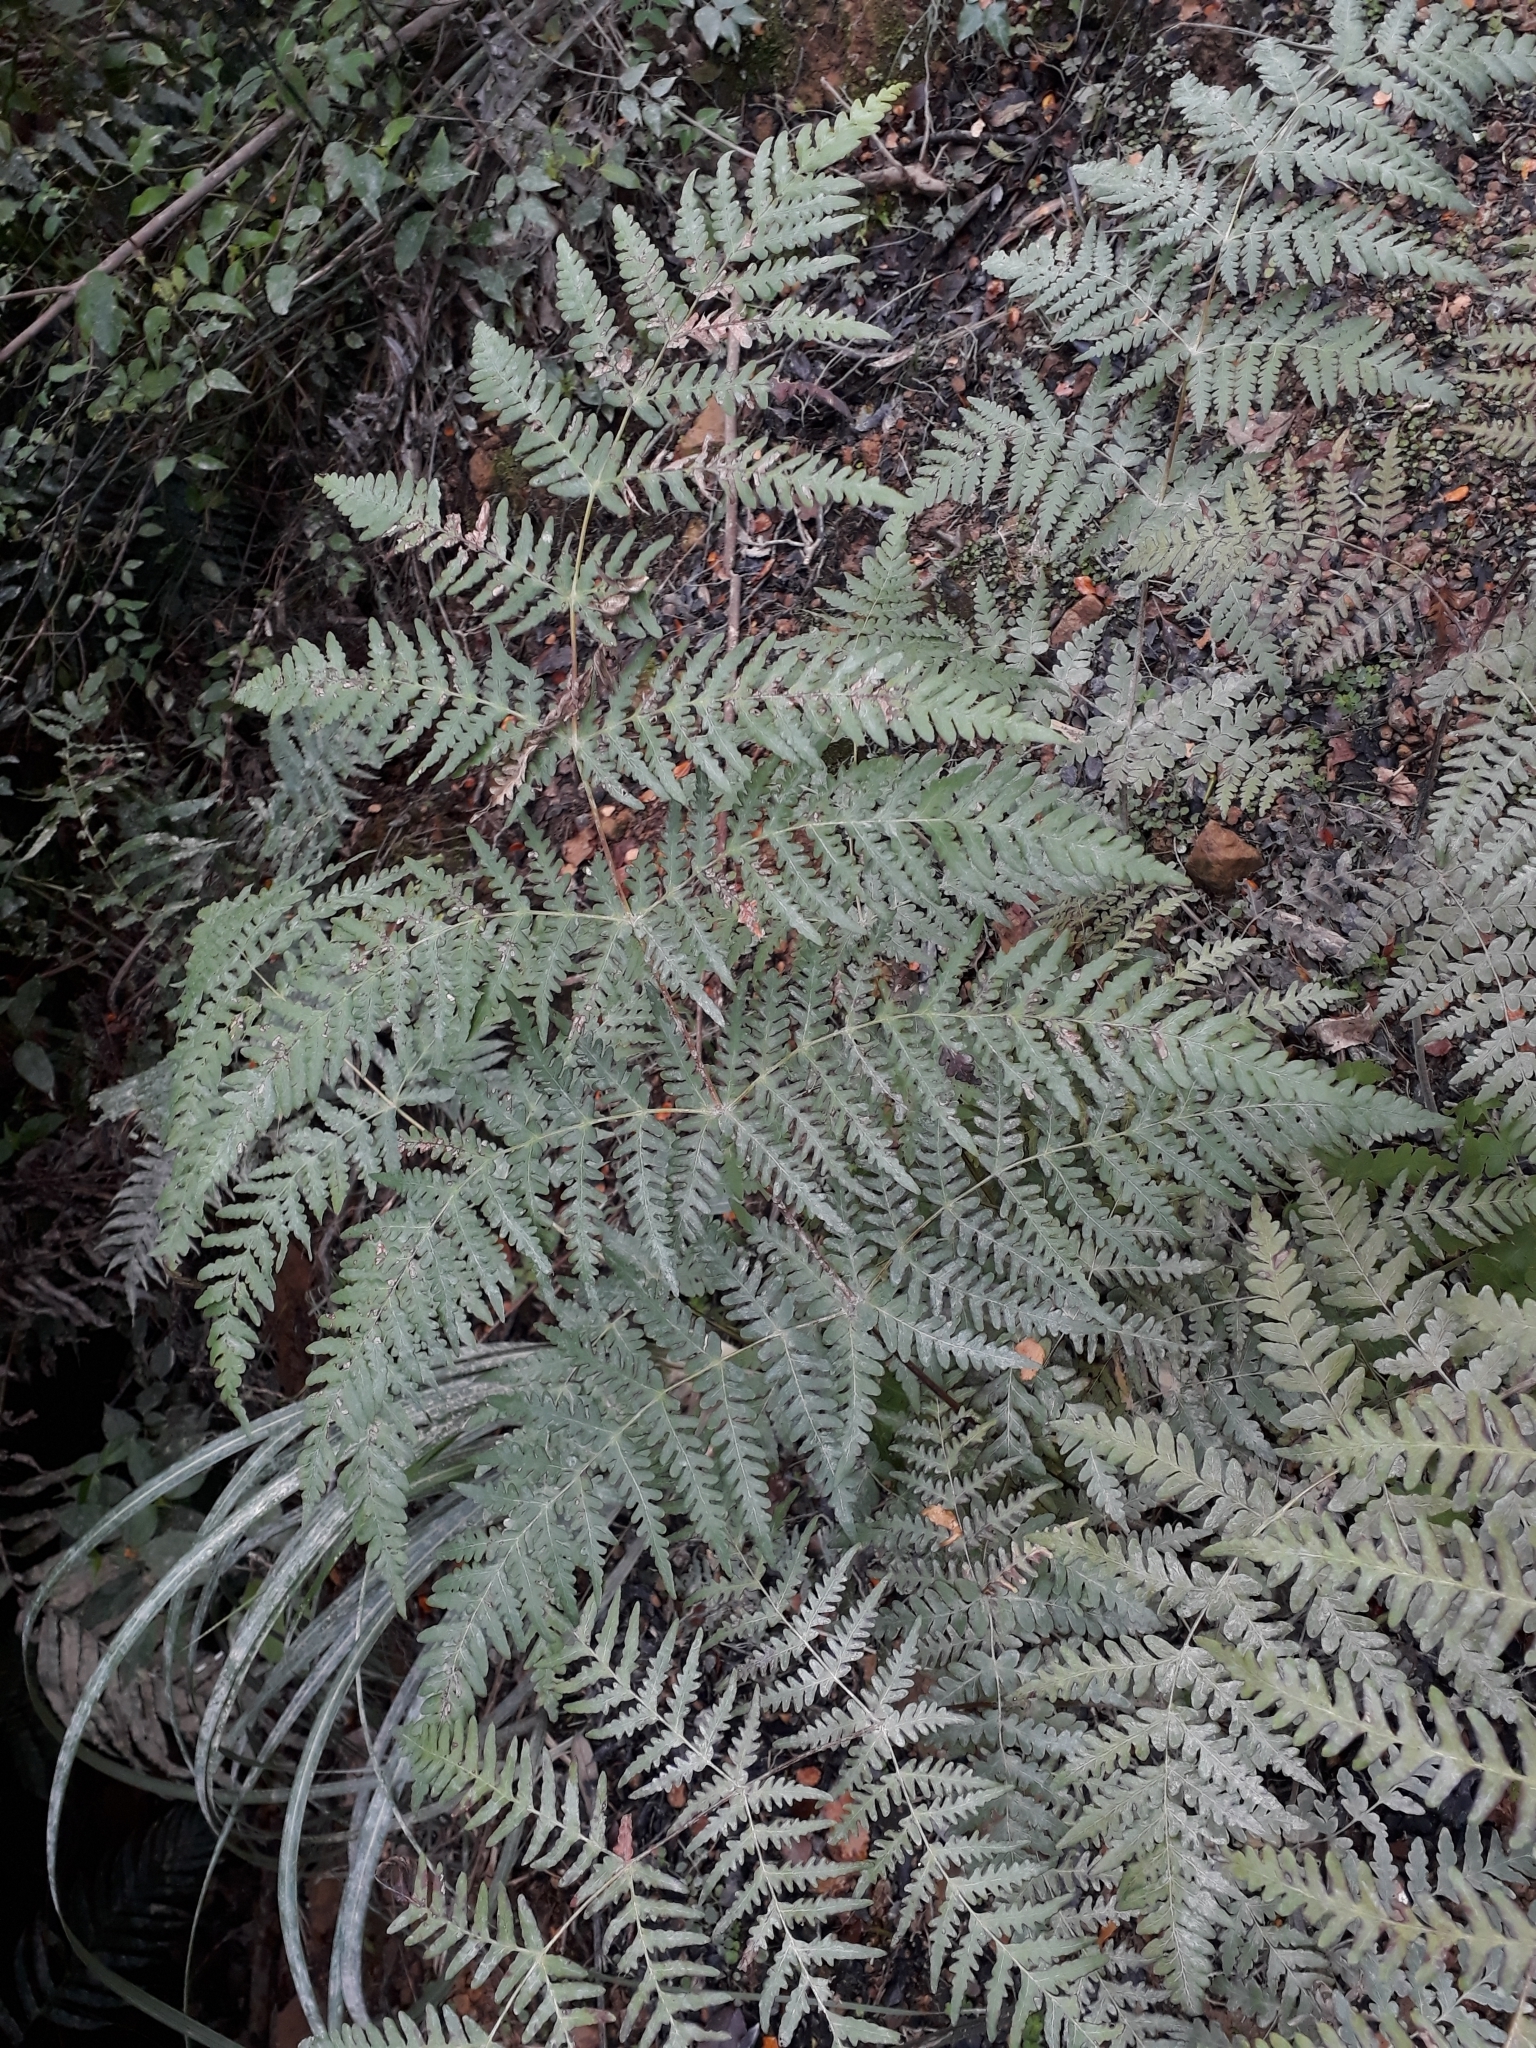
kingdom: Plantae
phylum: Tracheophyta
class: Polypodiopsida
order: Polypodiales
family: Dennstaedtiaceae
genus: Histiopteris
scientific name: Histiopteris incisa
